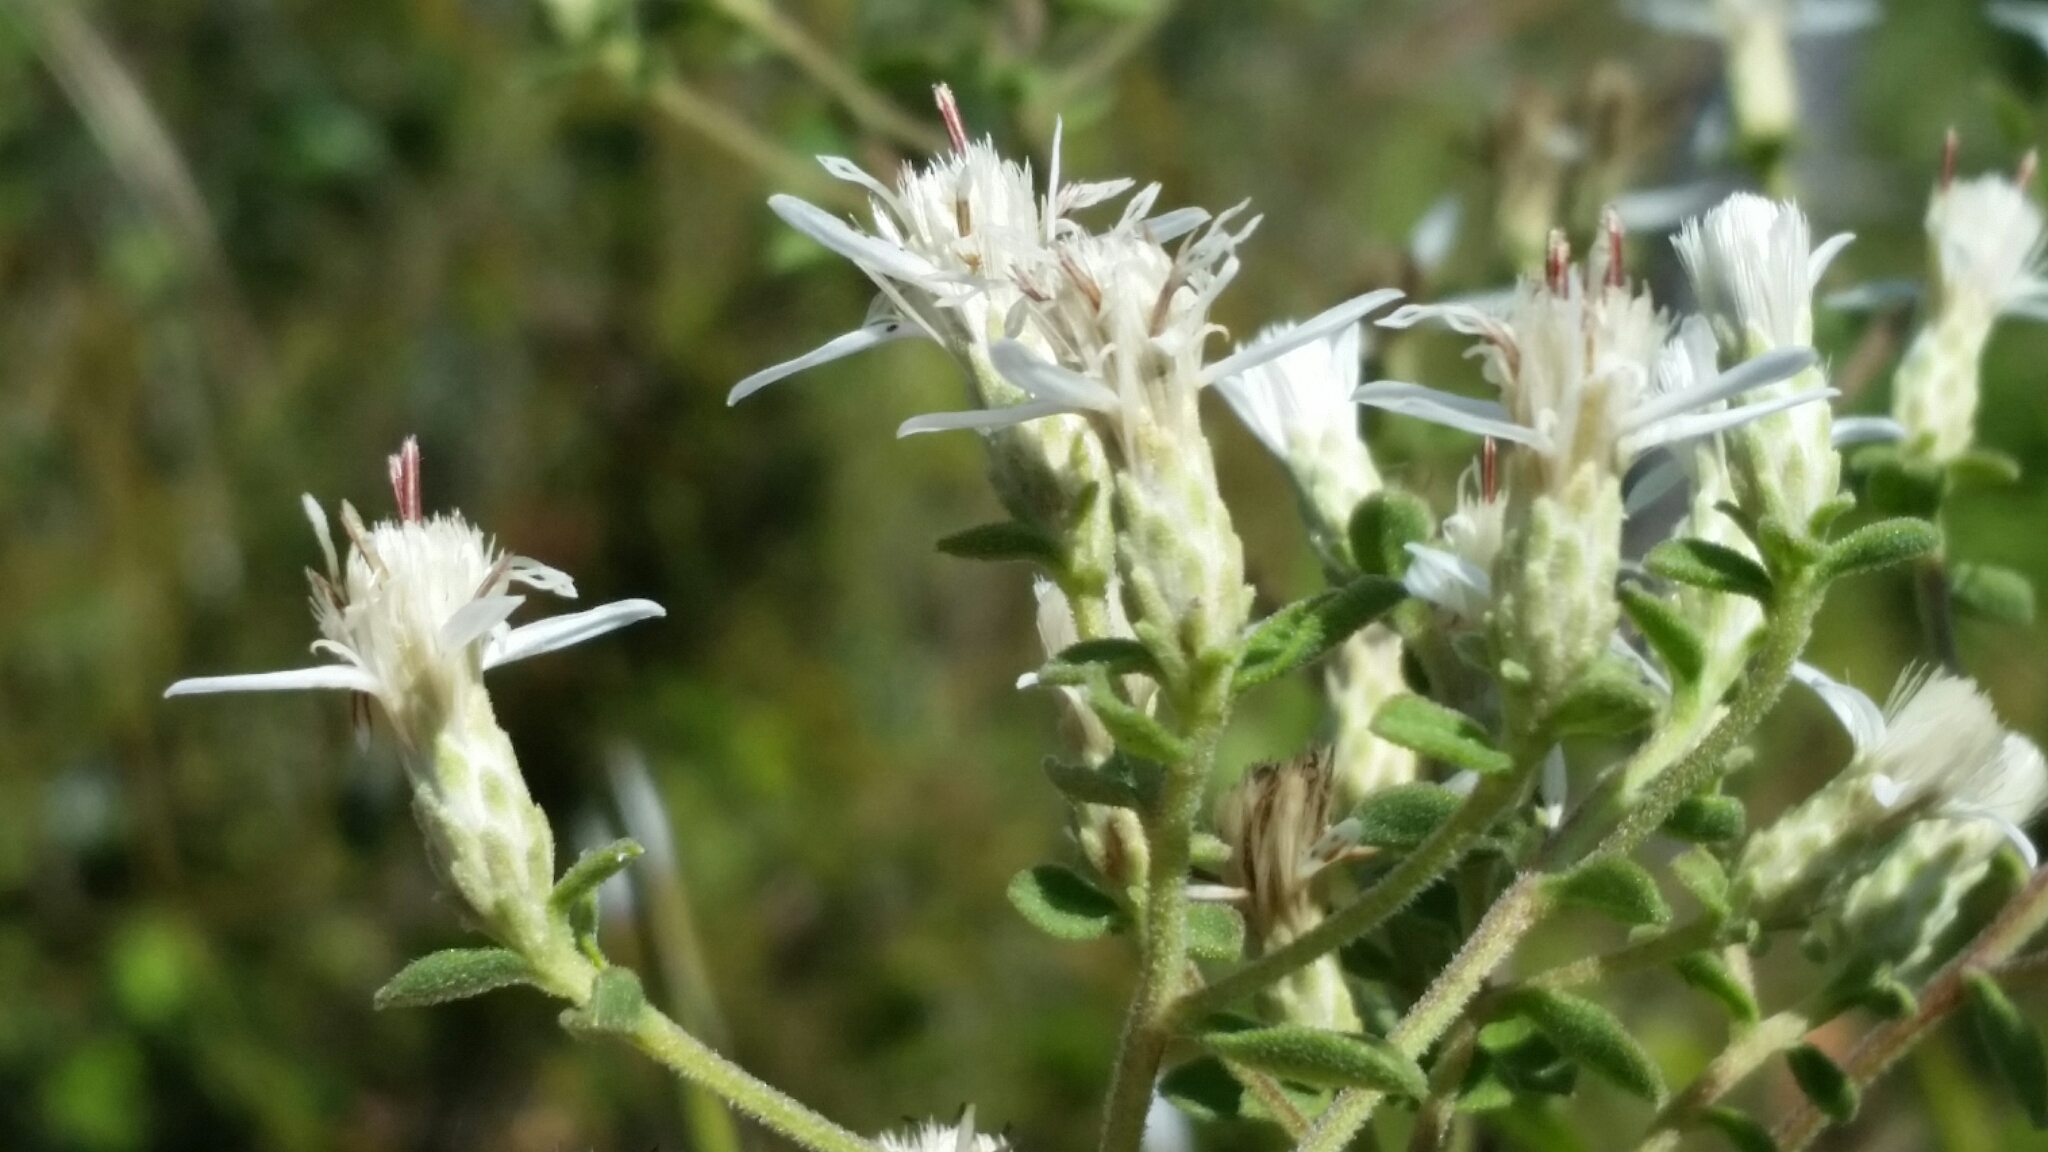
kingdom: Plantae
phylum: Tracheophyta
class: Magnoliopsida
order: Asterales
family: Asteraceae
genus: Sericocarpus
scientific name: Sericocarpus tortifolius
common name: Dixie aster
